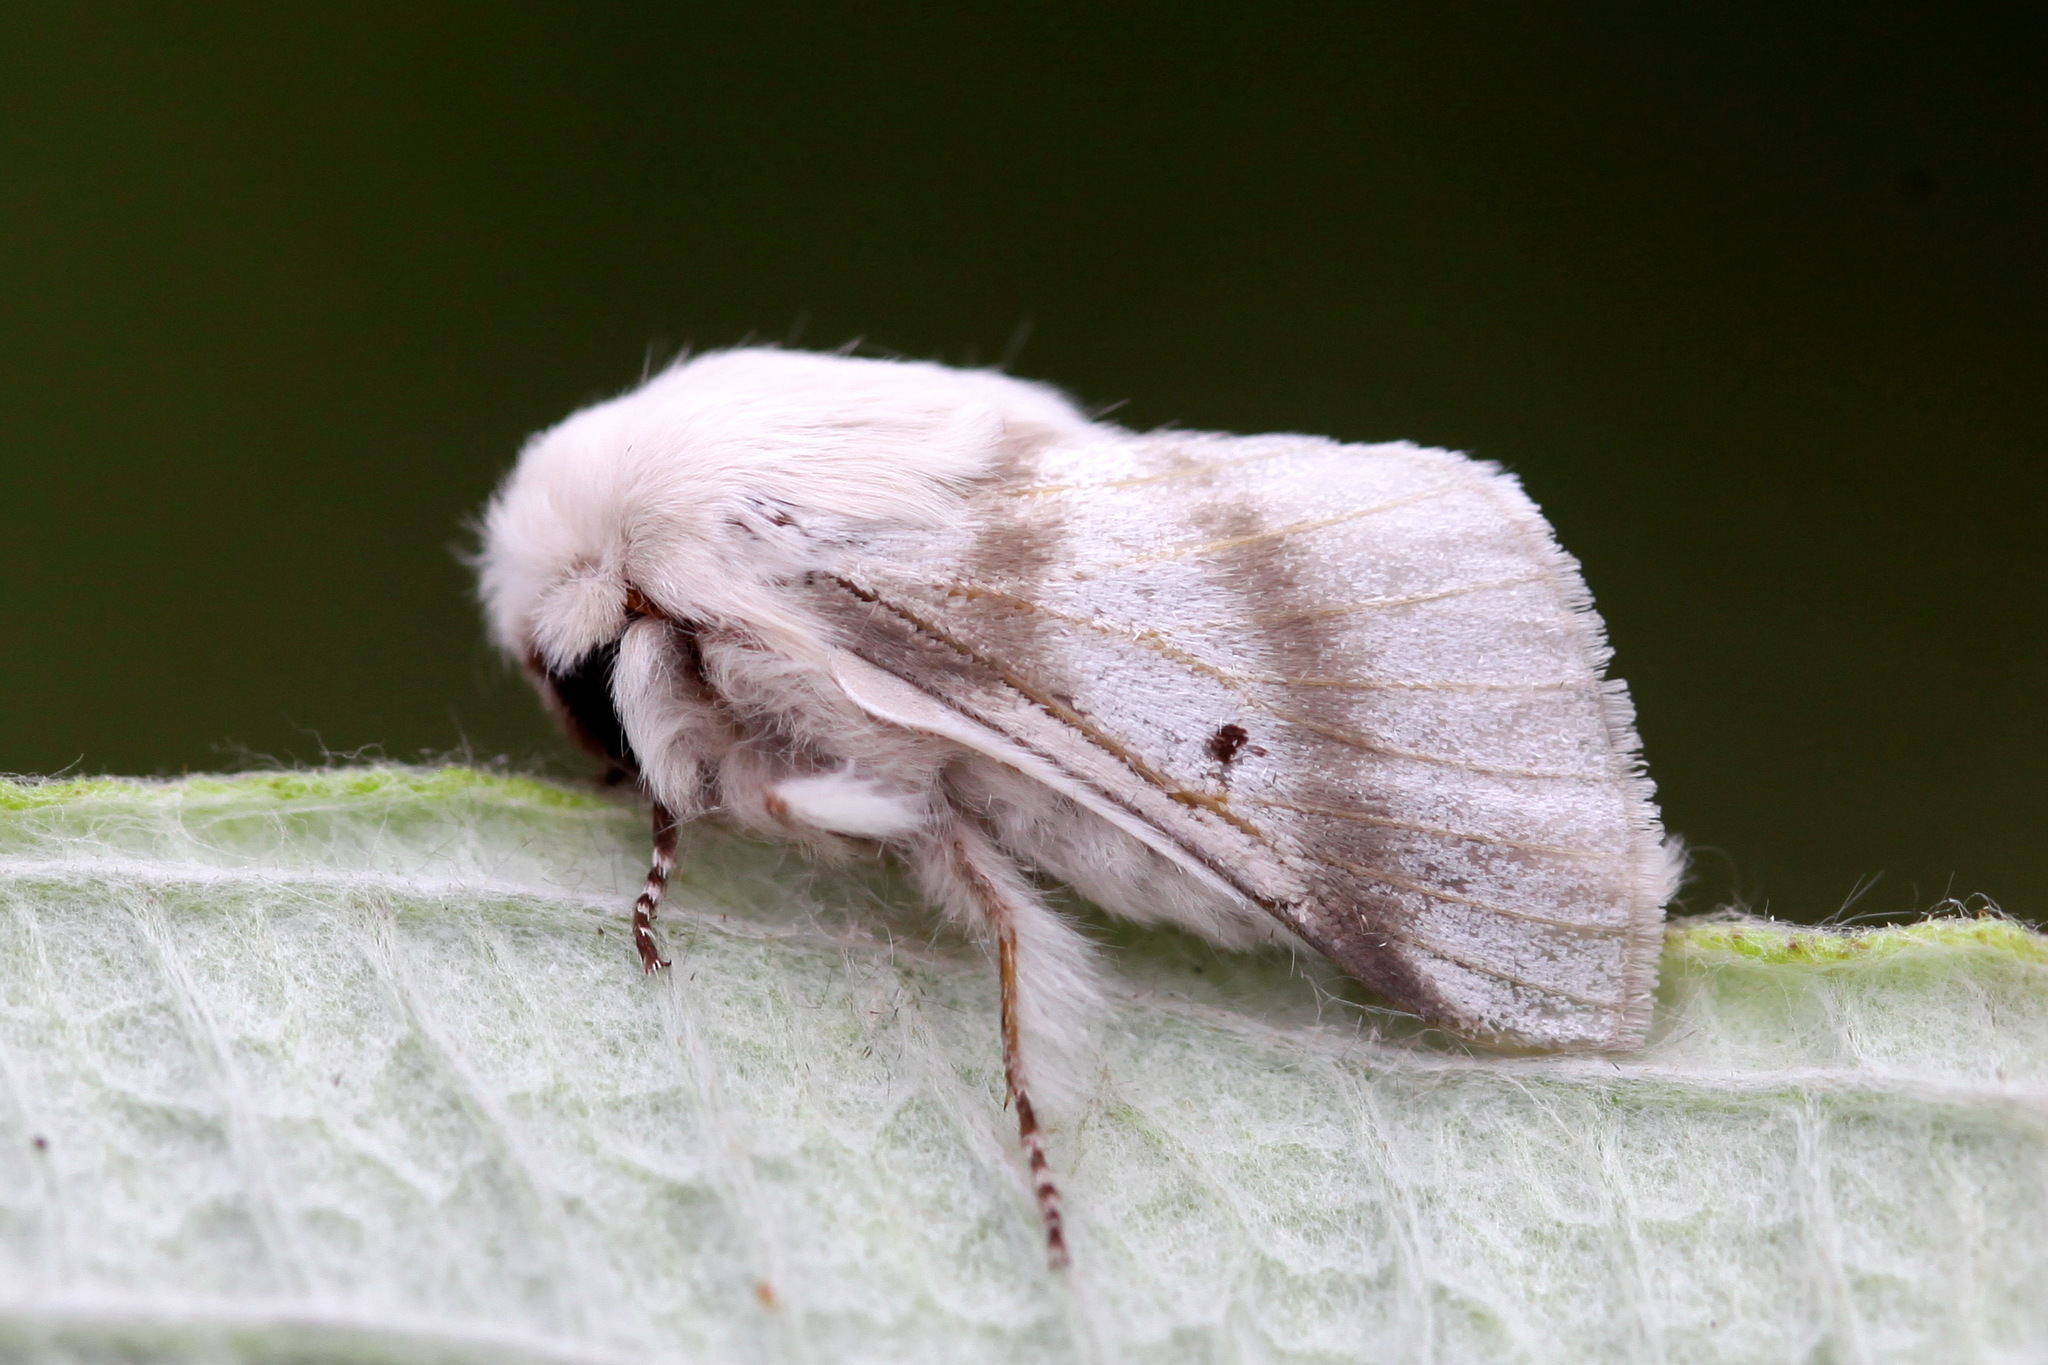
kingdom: Animalia
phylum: Arthropoda
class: Insecta
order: Lepidoptera
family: Lasiocampidae
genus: Bombycomorpha
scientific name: Bombycomorpha bifascia
